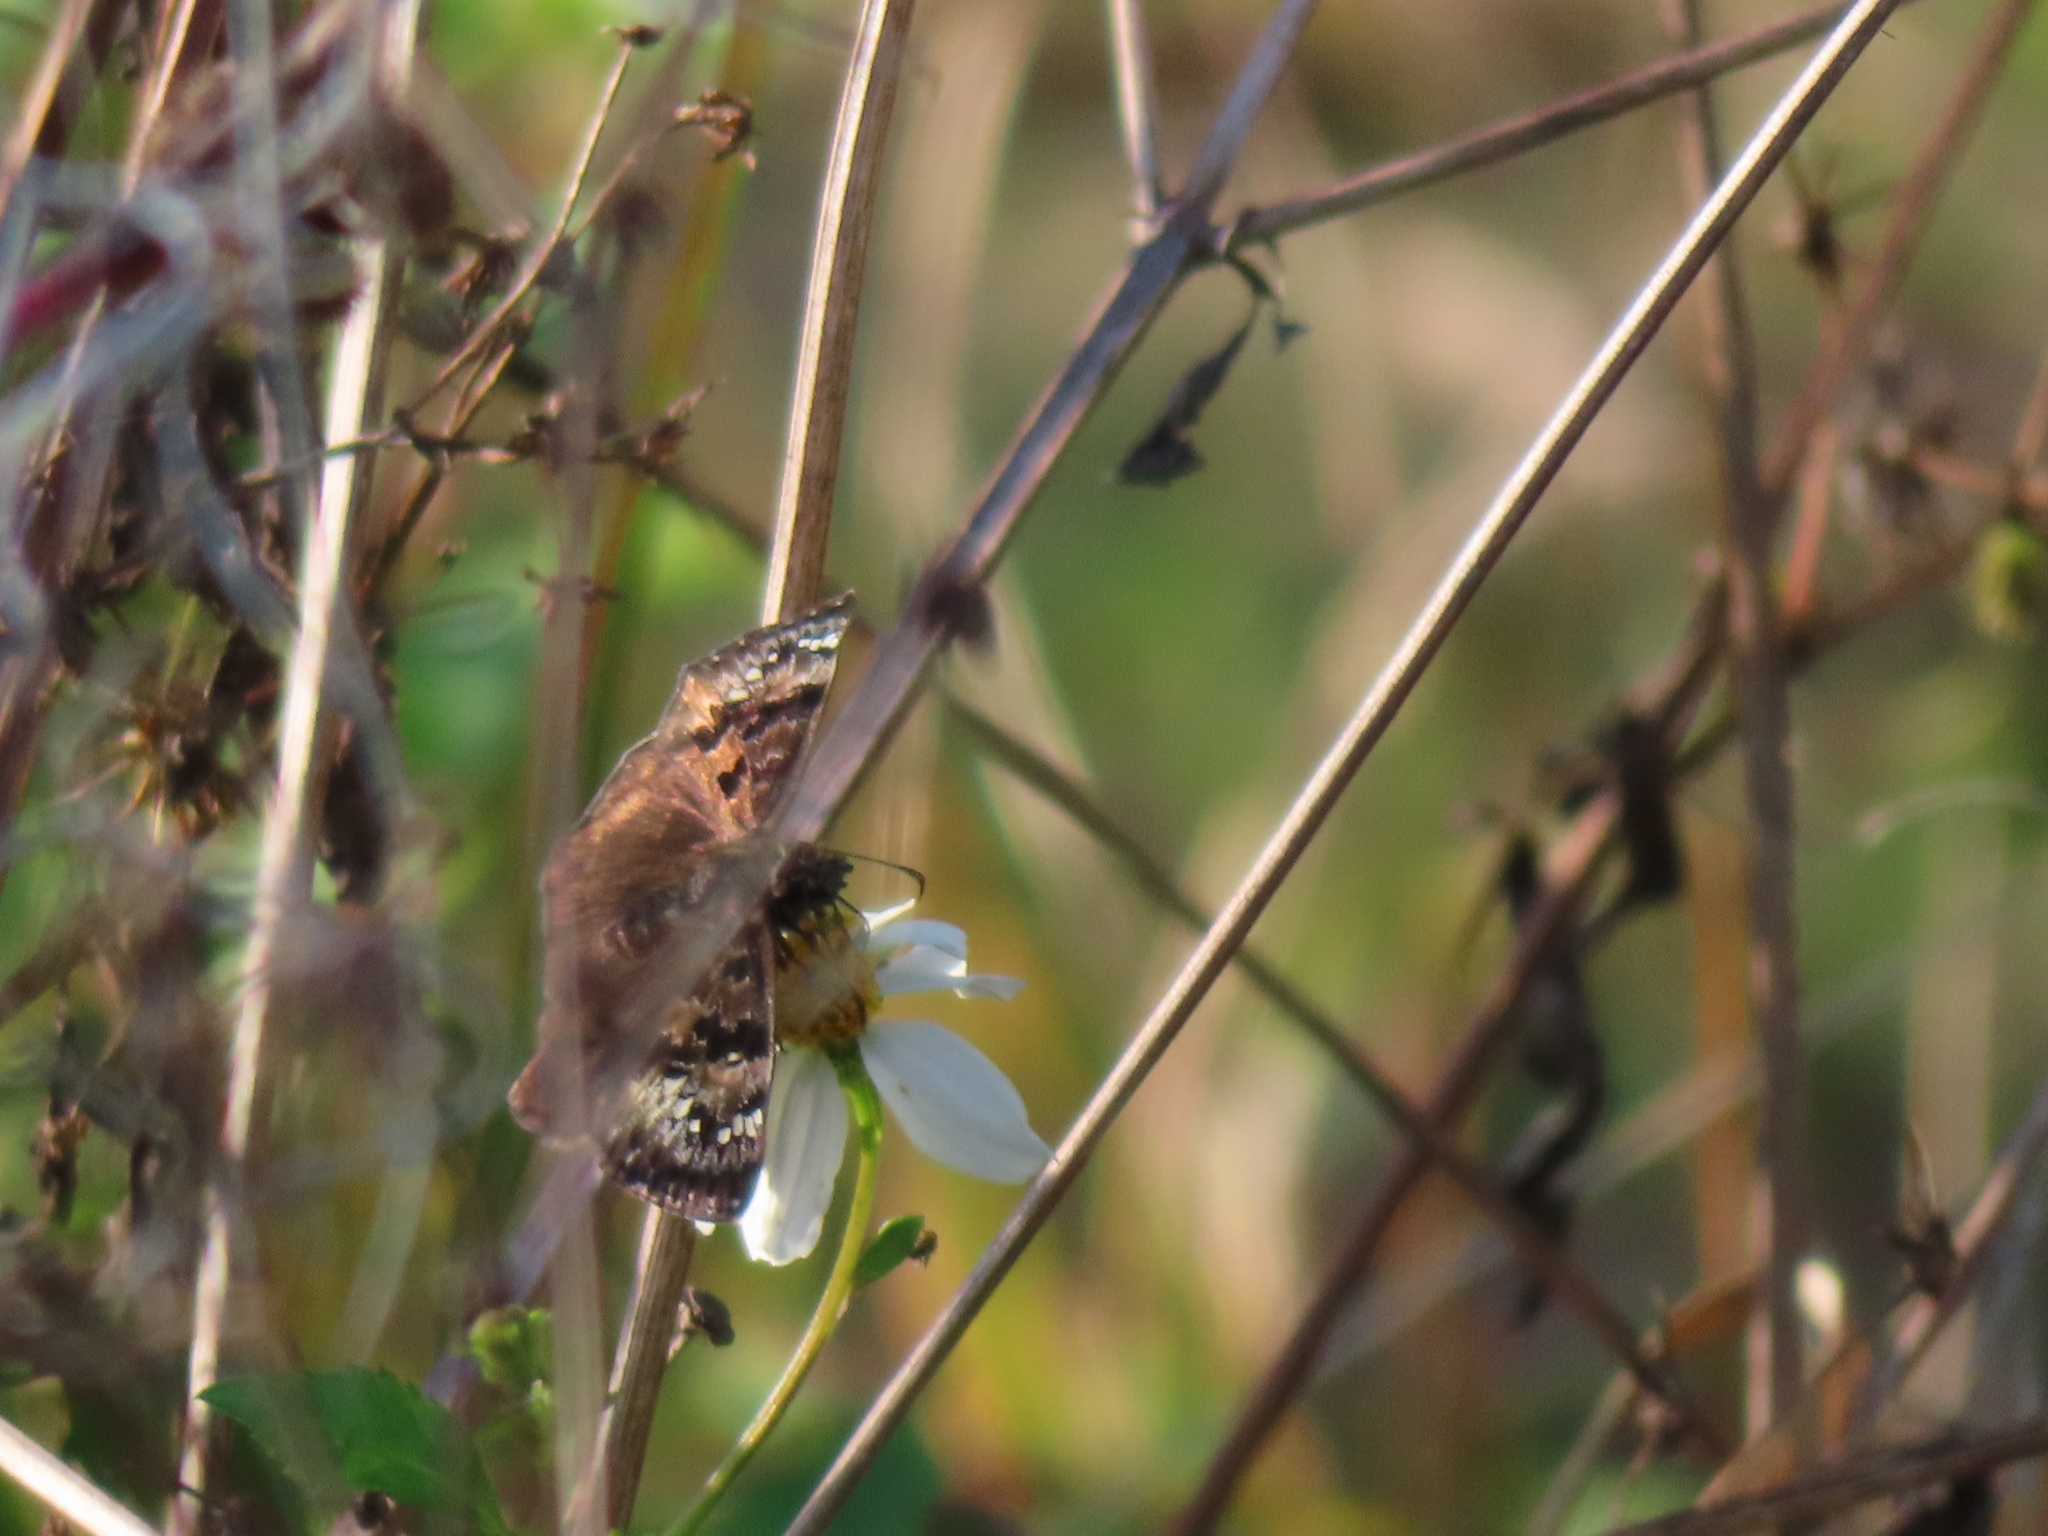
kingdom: Animalia
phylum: Arthropoda
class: Insecta
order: Lepidoptera
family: Hesperiidae
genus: Erynnis
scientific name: Erynnis horatius
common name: Horace's duskywing
